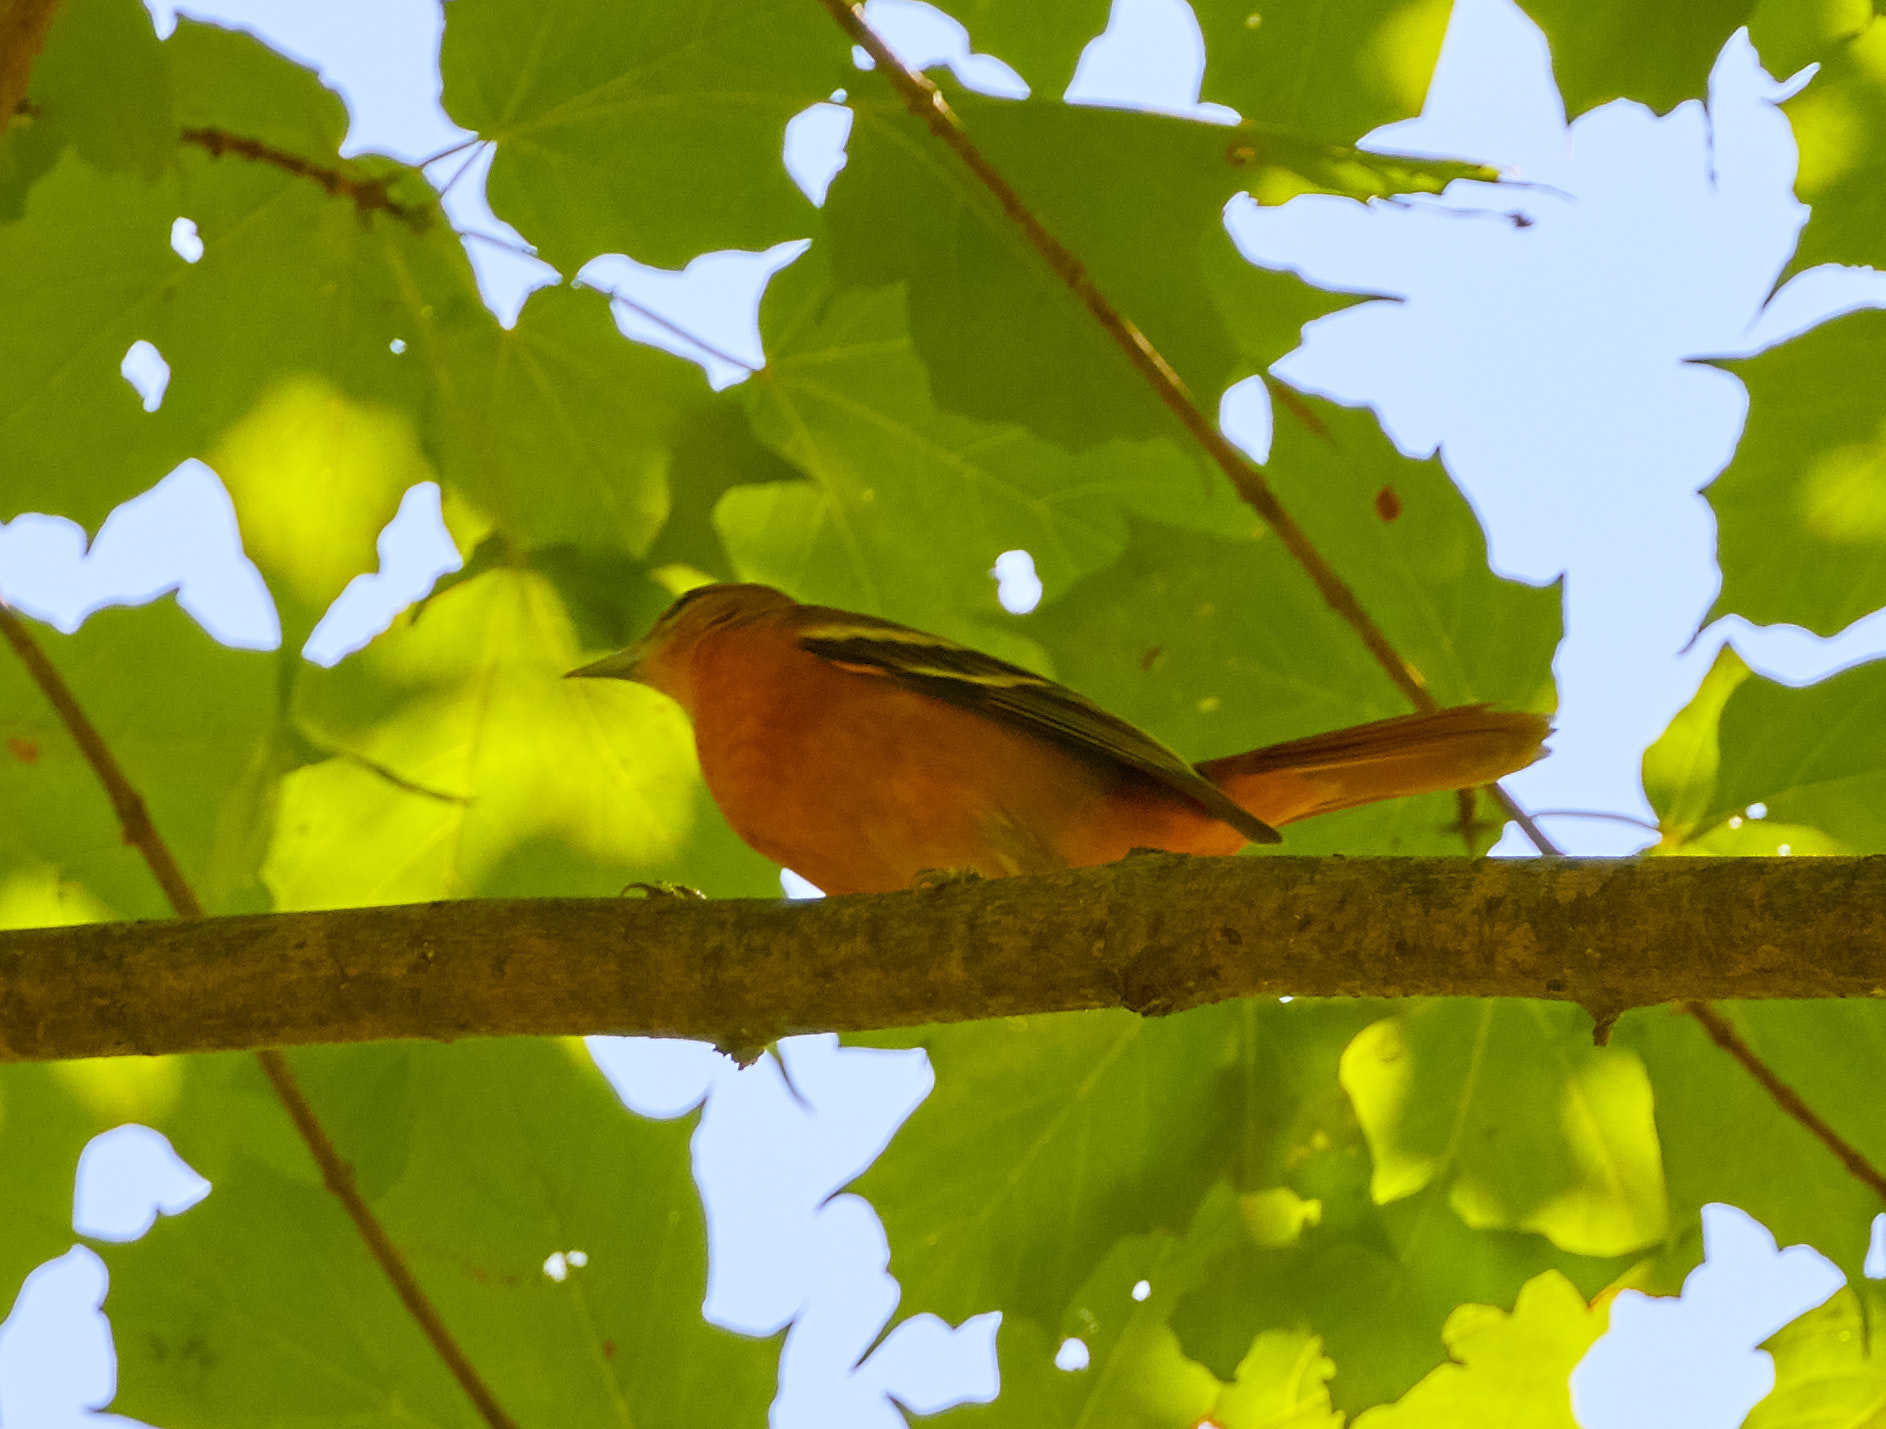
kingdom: Animalia
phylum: Chordata
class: Aves
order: Passeriformes
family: Icteridae
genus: Icterus
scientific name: Icterus galbula
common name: Baltimore oriole
